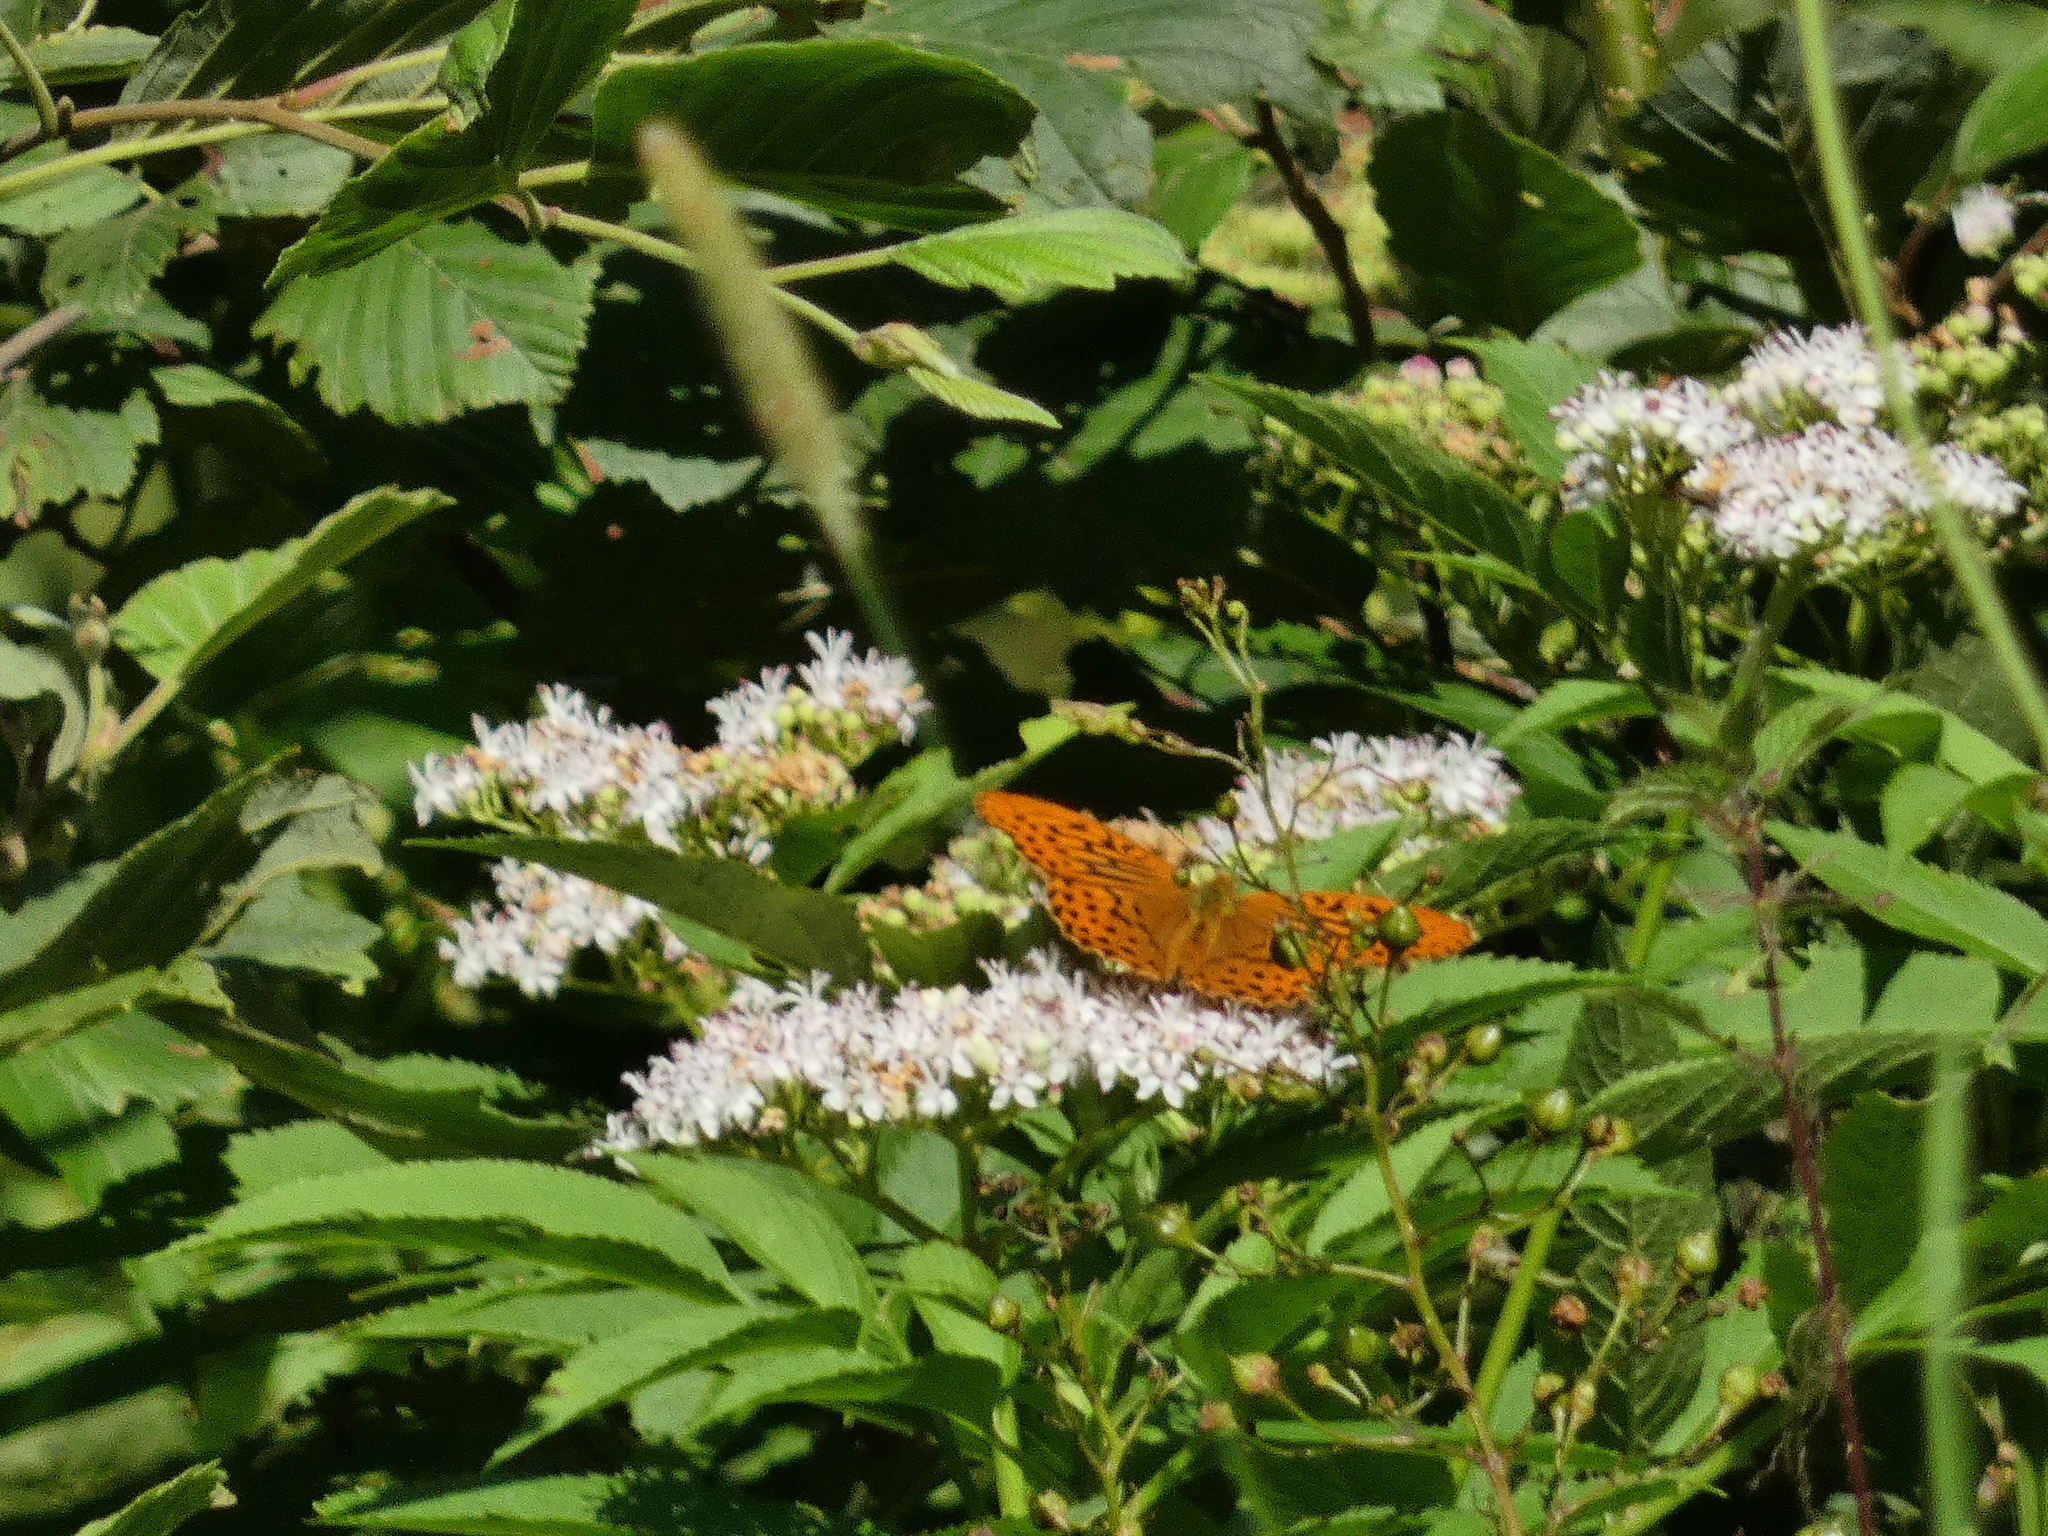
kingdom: Animalia
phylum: Arthropoda
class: Insecta
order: Lepidoptera
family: Nymphalidae
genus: Argynnis
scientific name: Argynnis paphia
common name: Silver-washed fritillary
